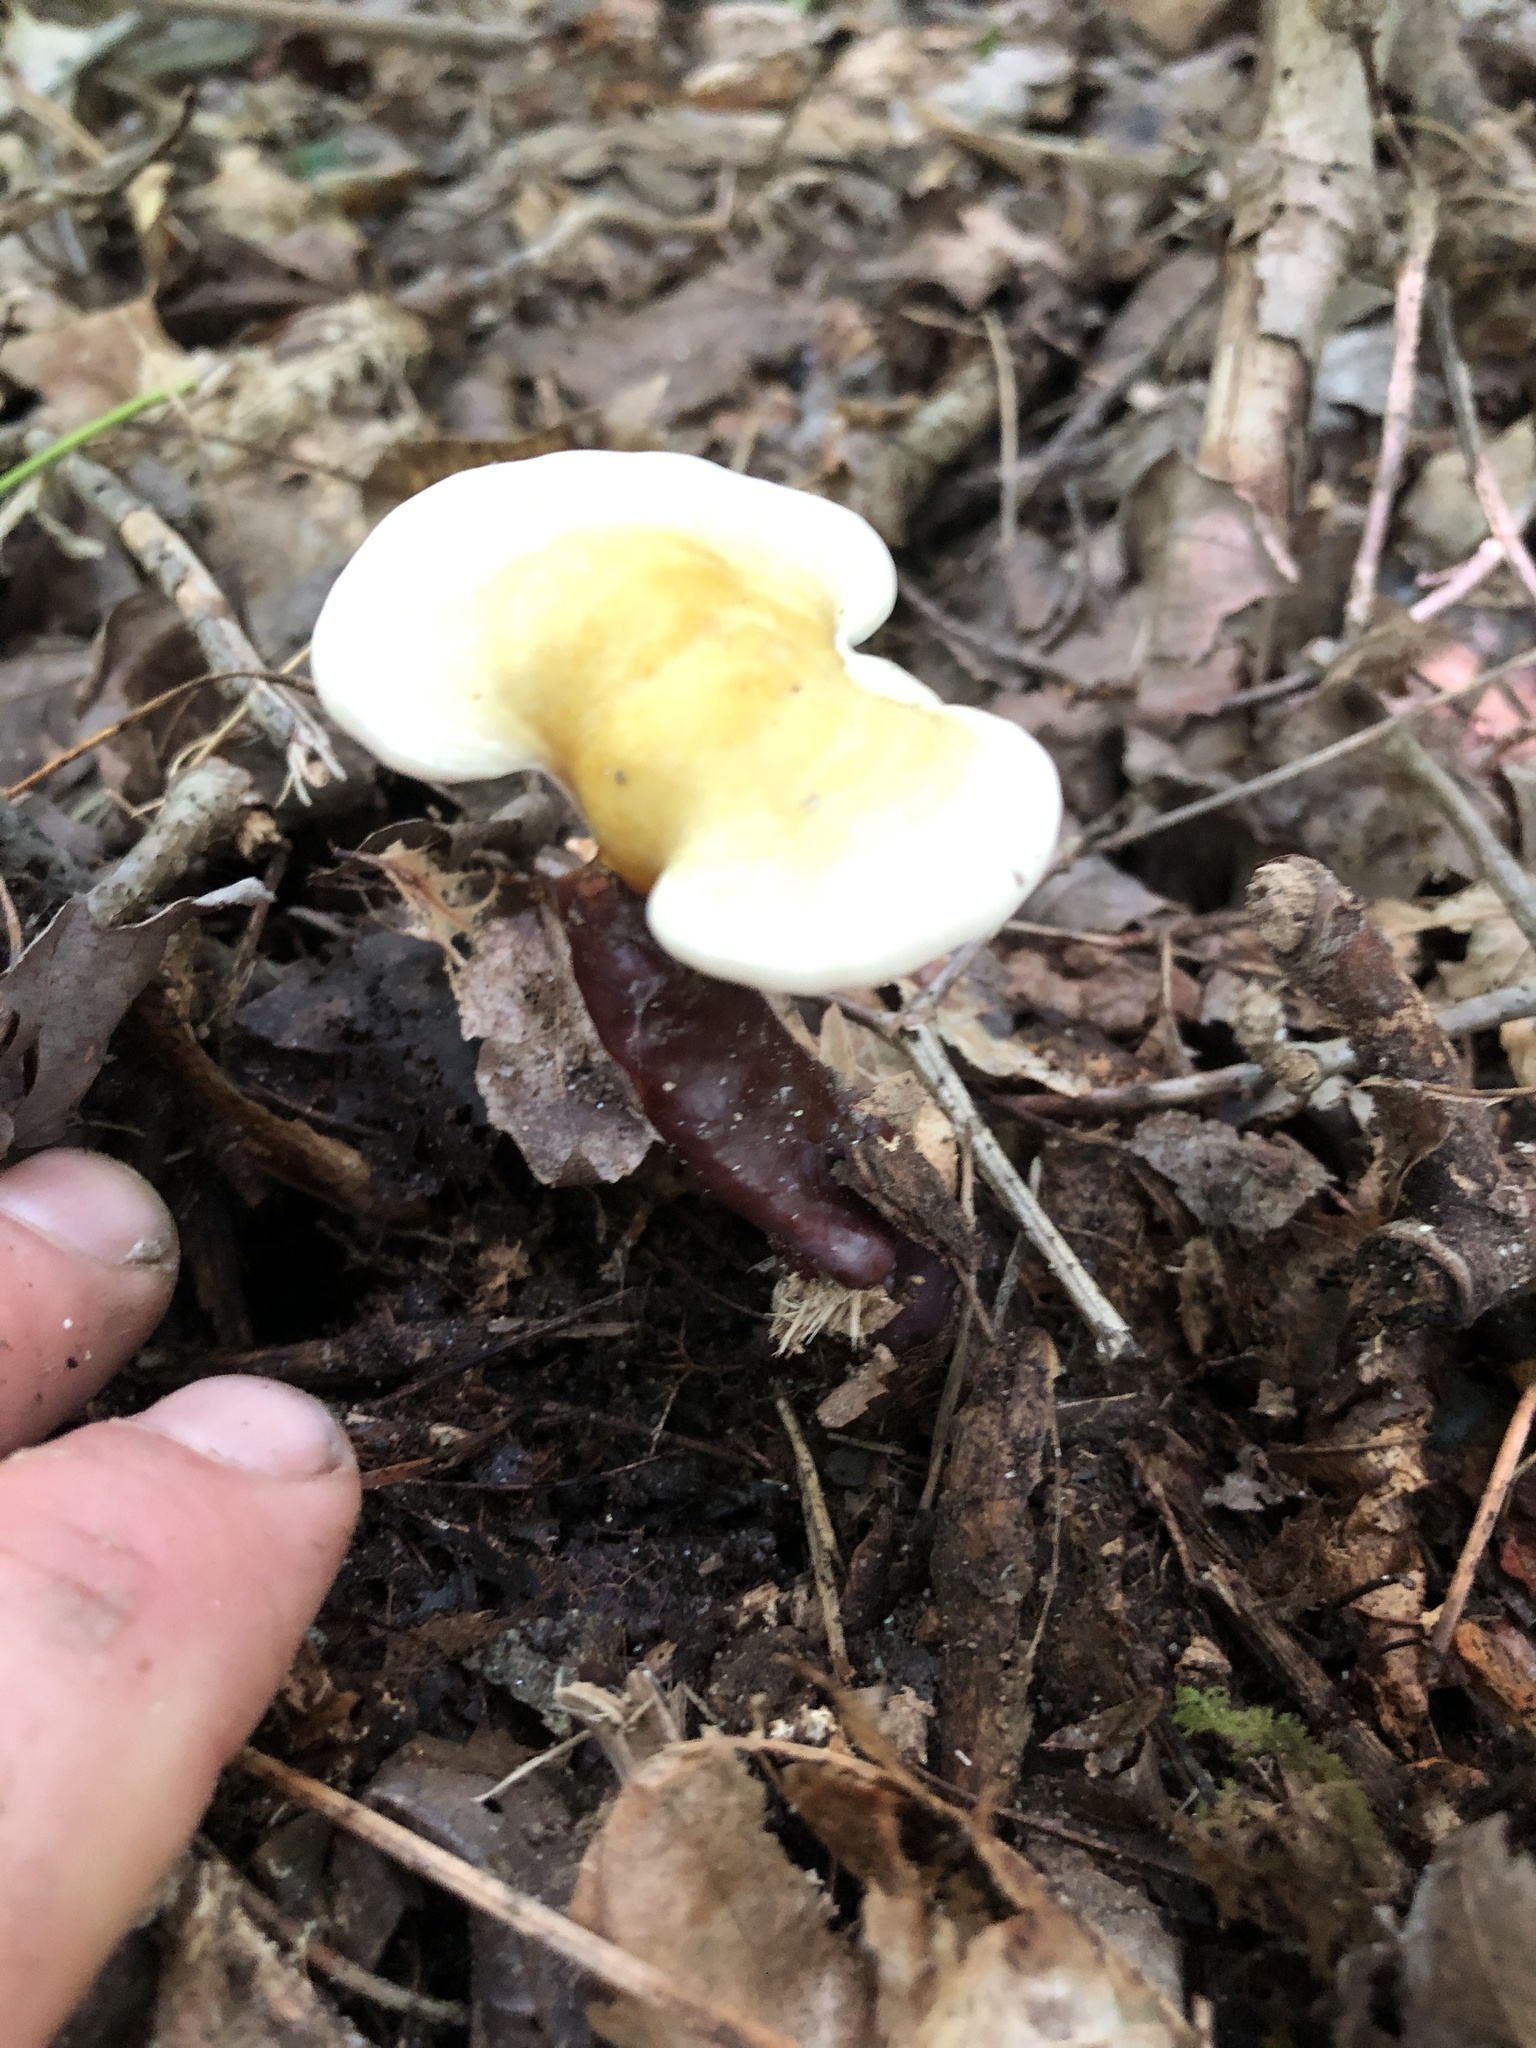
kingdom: Fungi
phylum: Basidiomycota
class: Agaricomycetes
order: Polyporales
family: Polyporaceae
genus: Ganoderma
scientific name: Ganoderma curtisii
